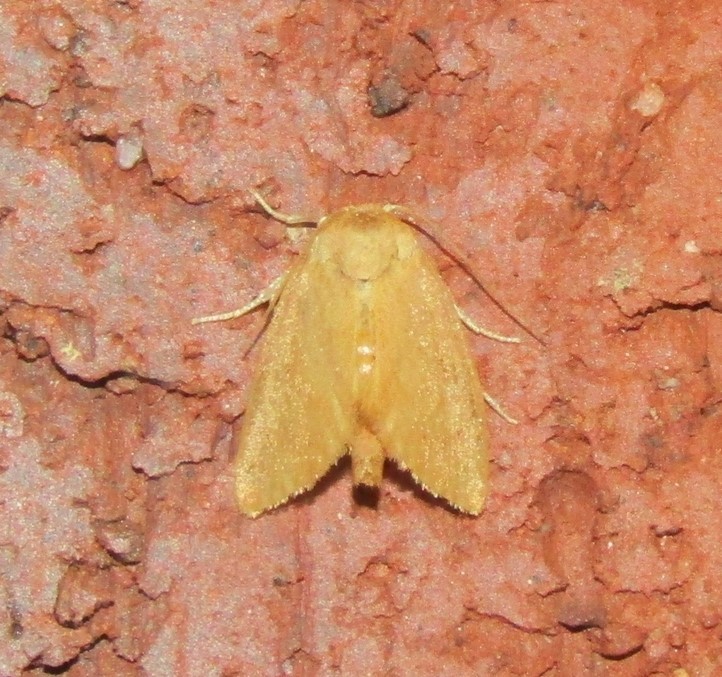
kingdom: Animalia
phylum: Arthropoda
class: Insecta
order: Lepidoptera
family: Limacodidae
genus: Tortricidia
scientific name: Tortricidia pallida
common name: Red-crossed button slug moth
